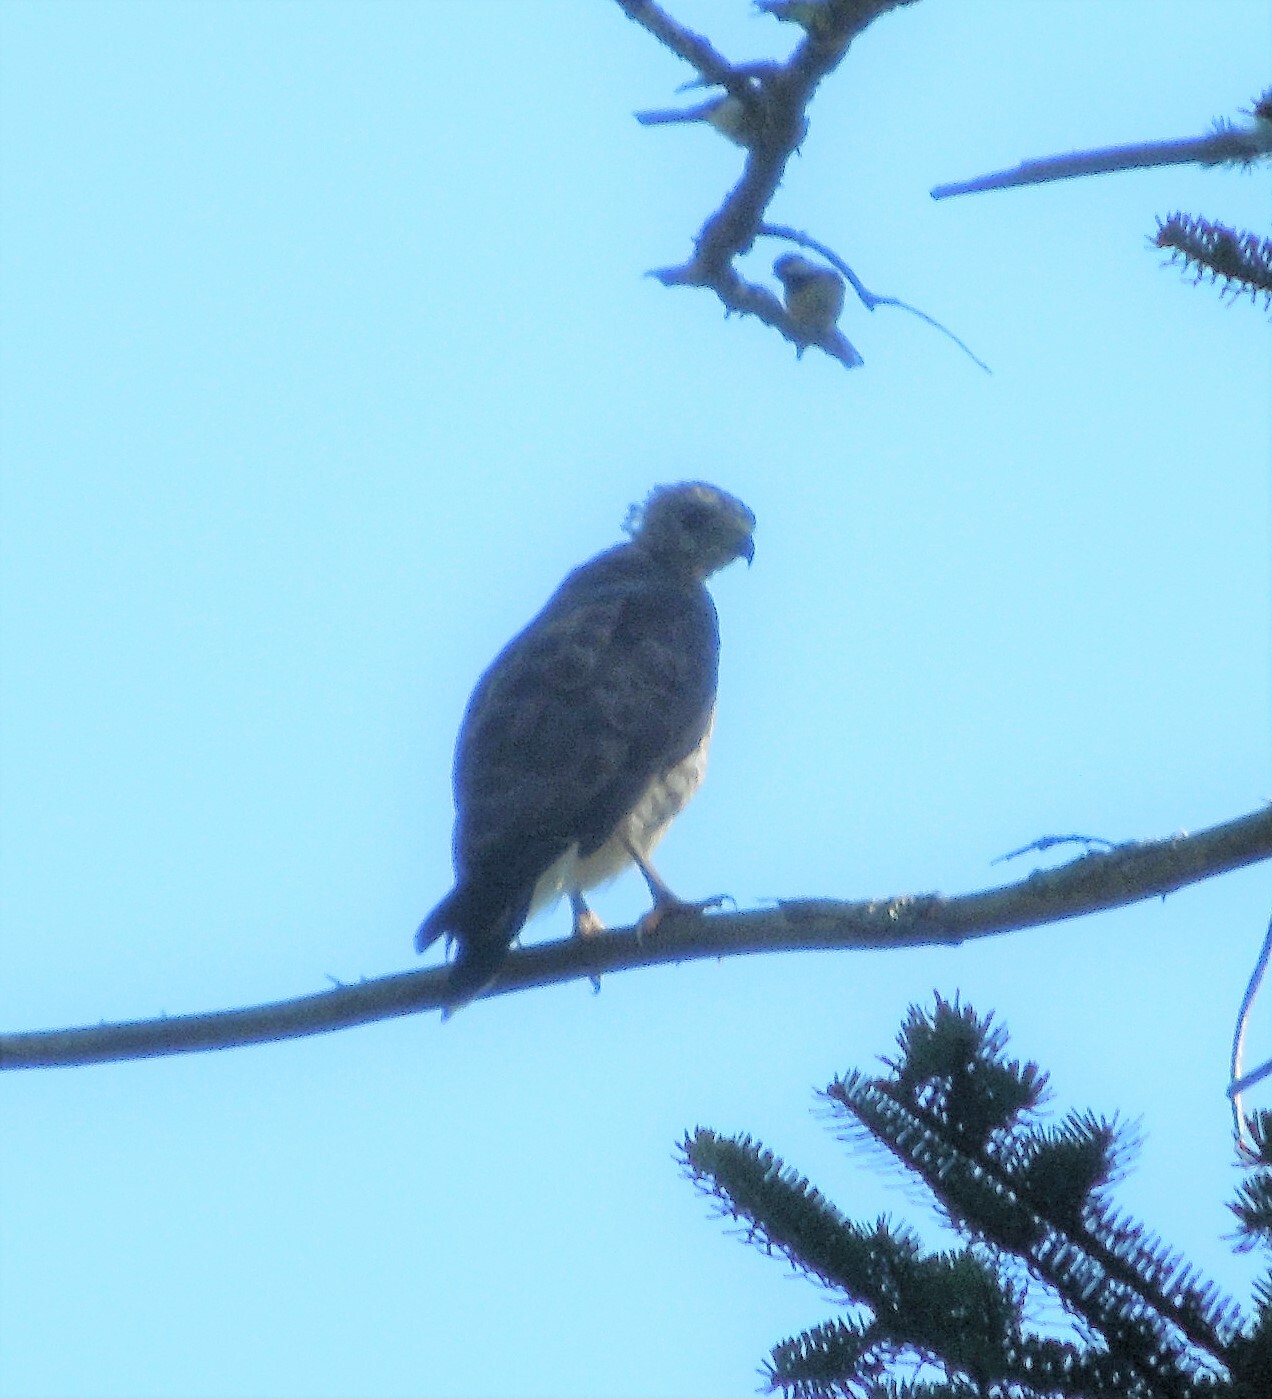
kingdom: Animalia
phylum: Chordata
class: Aves
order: Accipitriformes
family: Accipitridae
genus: Buteo
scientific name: Buteo platypterus
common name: Broad-winged hawk
